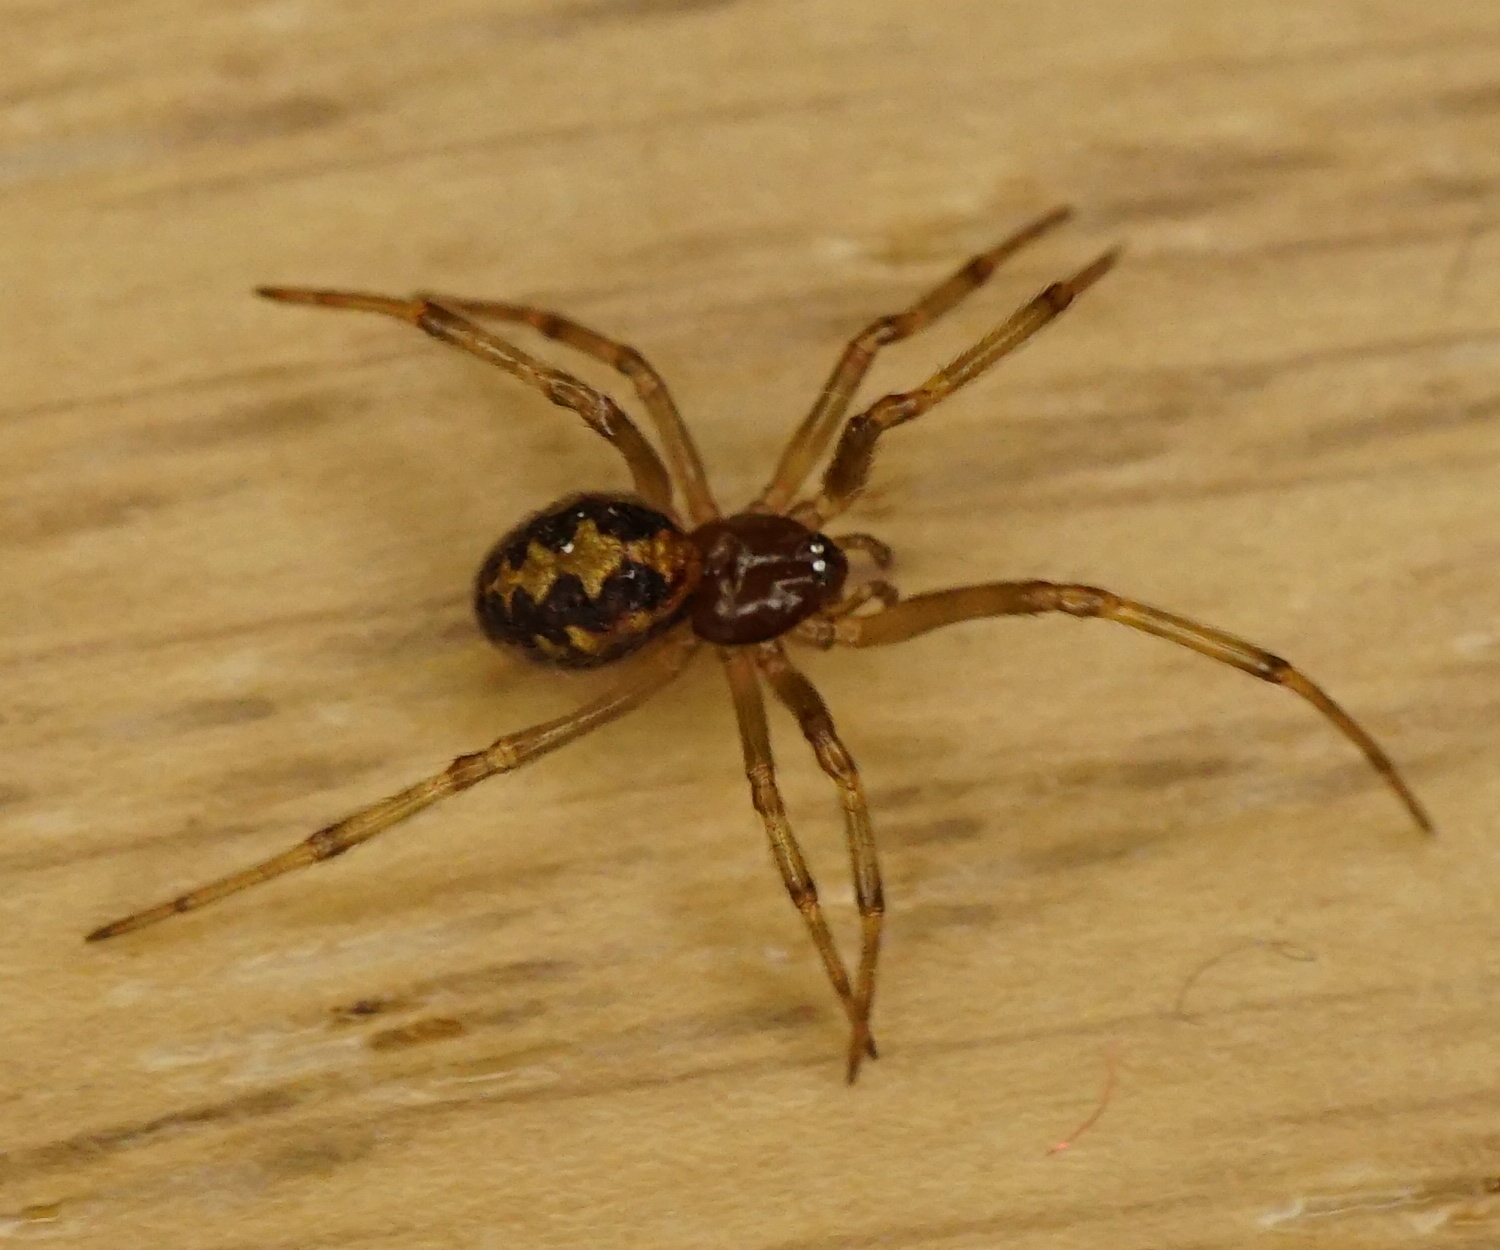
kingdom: Animalia
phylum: Arthropoda
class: Arachnida
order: Araneae
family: Theridiidae
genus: Steatoda
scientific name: Steatoda triangulosa
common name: Triangulate bud spider
